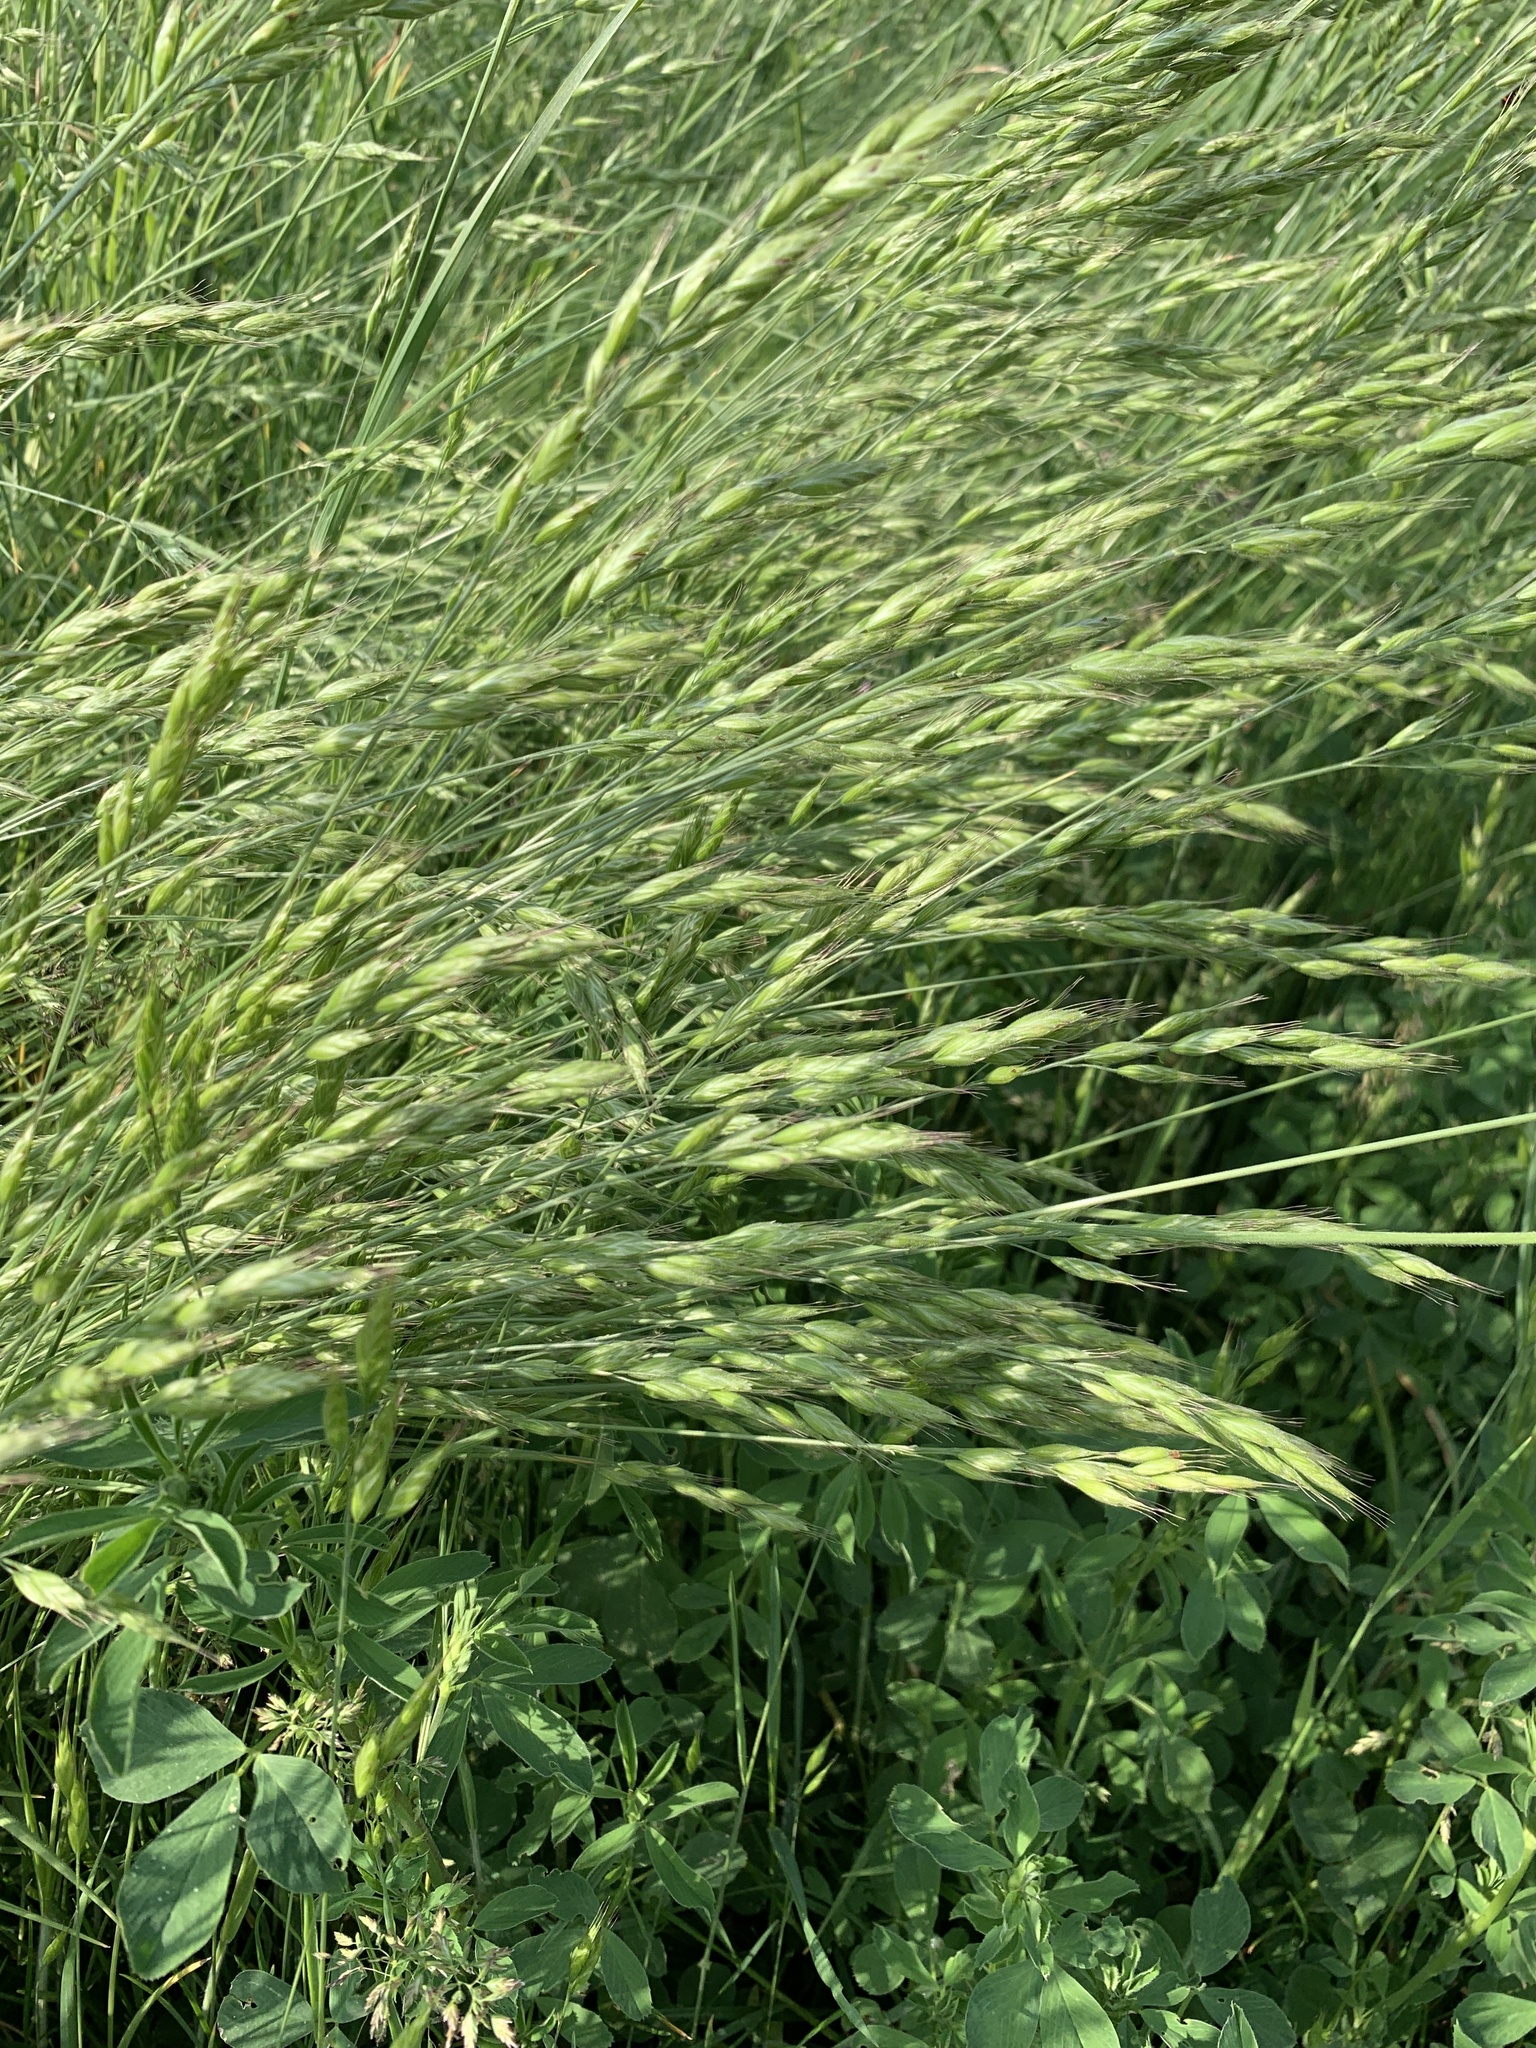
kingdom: Plantae
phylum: Tracheophyta
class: Liliopsida
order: Poales
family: Poaceae
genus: Bromus
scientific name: Bromus hordeaceus
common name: Soft brome
